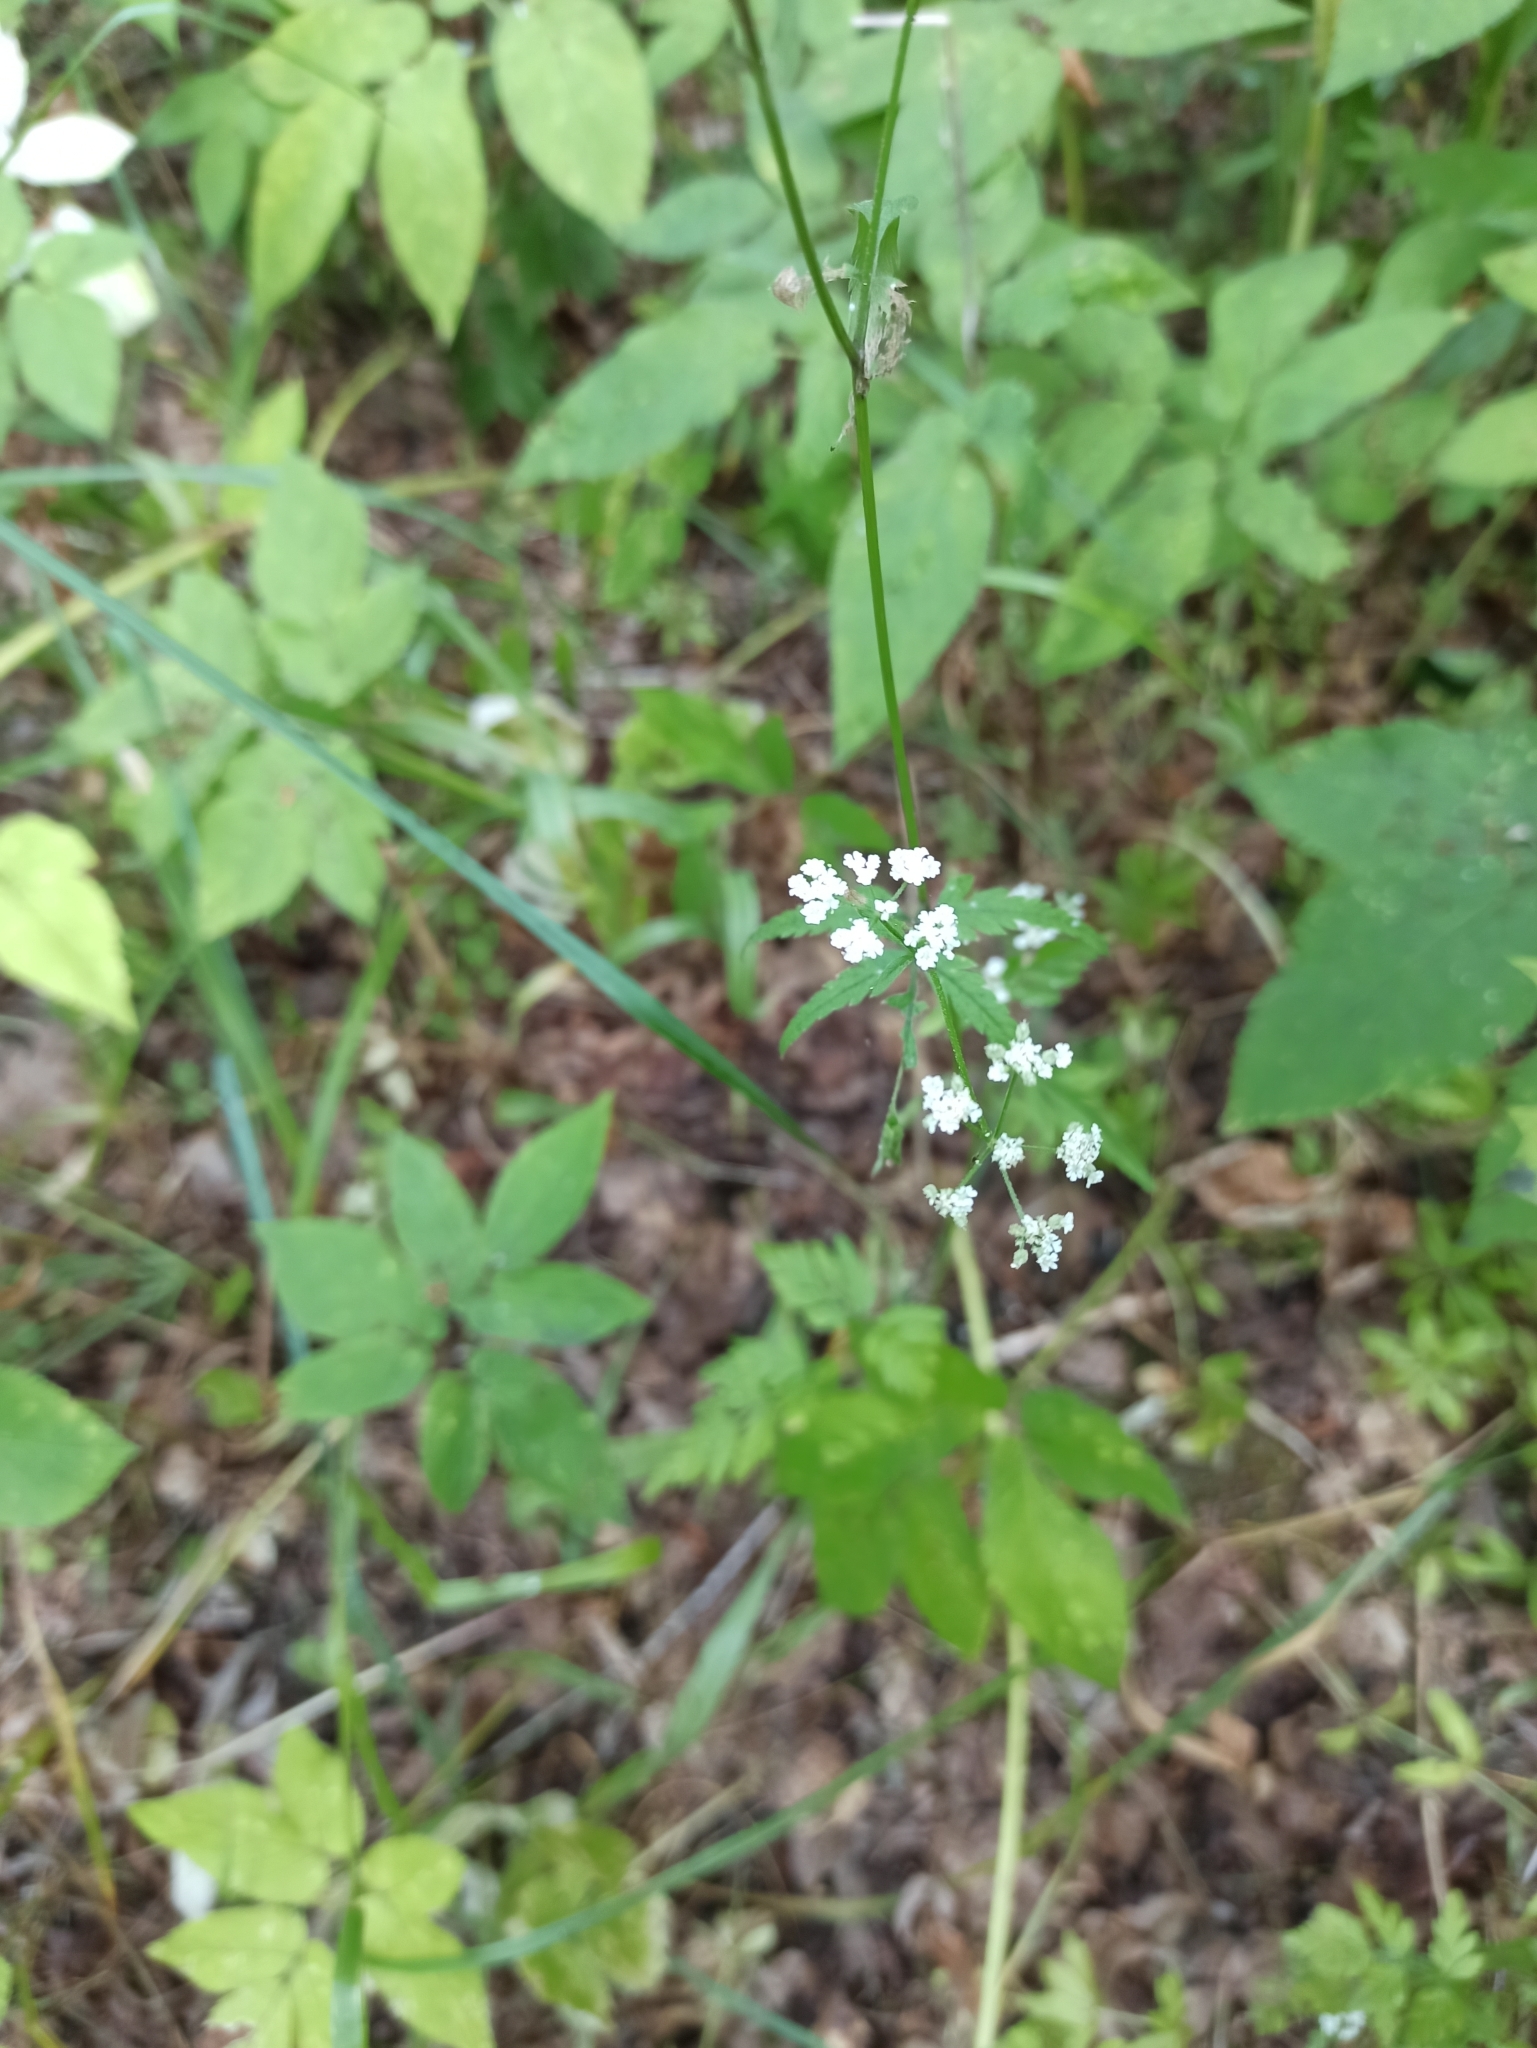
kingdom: Plantae
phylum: Tracheophyta
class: Magnoliopsida
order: Apiales
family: Apiaceae
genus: Torilis
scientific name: Torilis japonica
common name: Upright hedge-parsley
